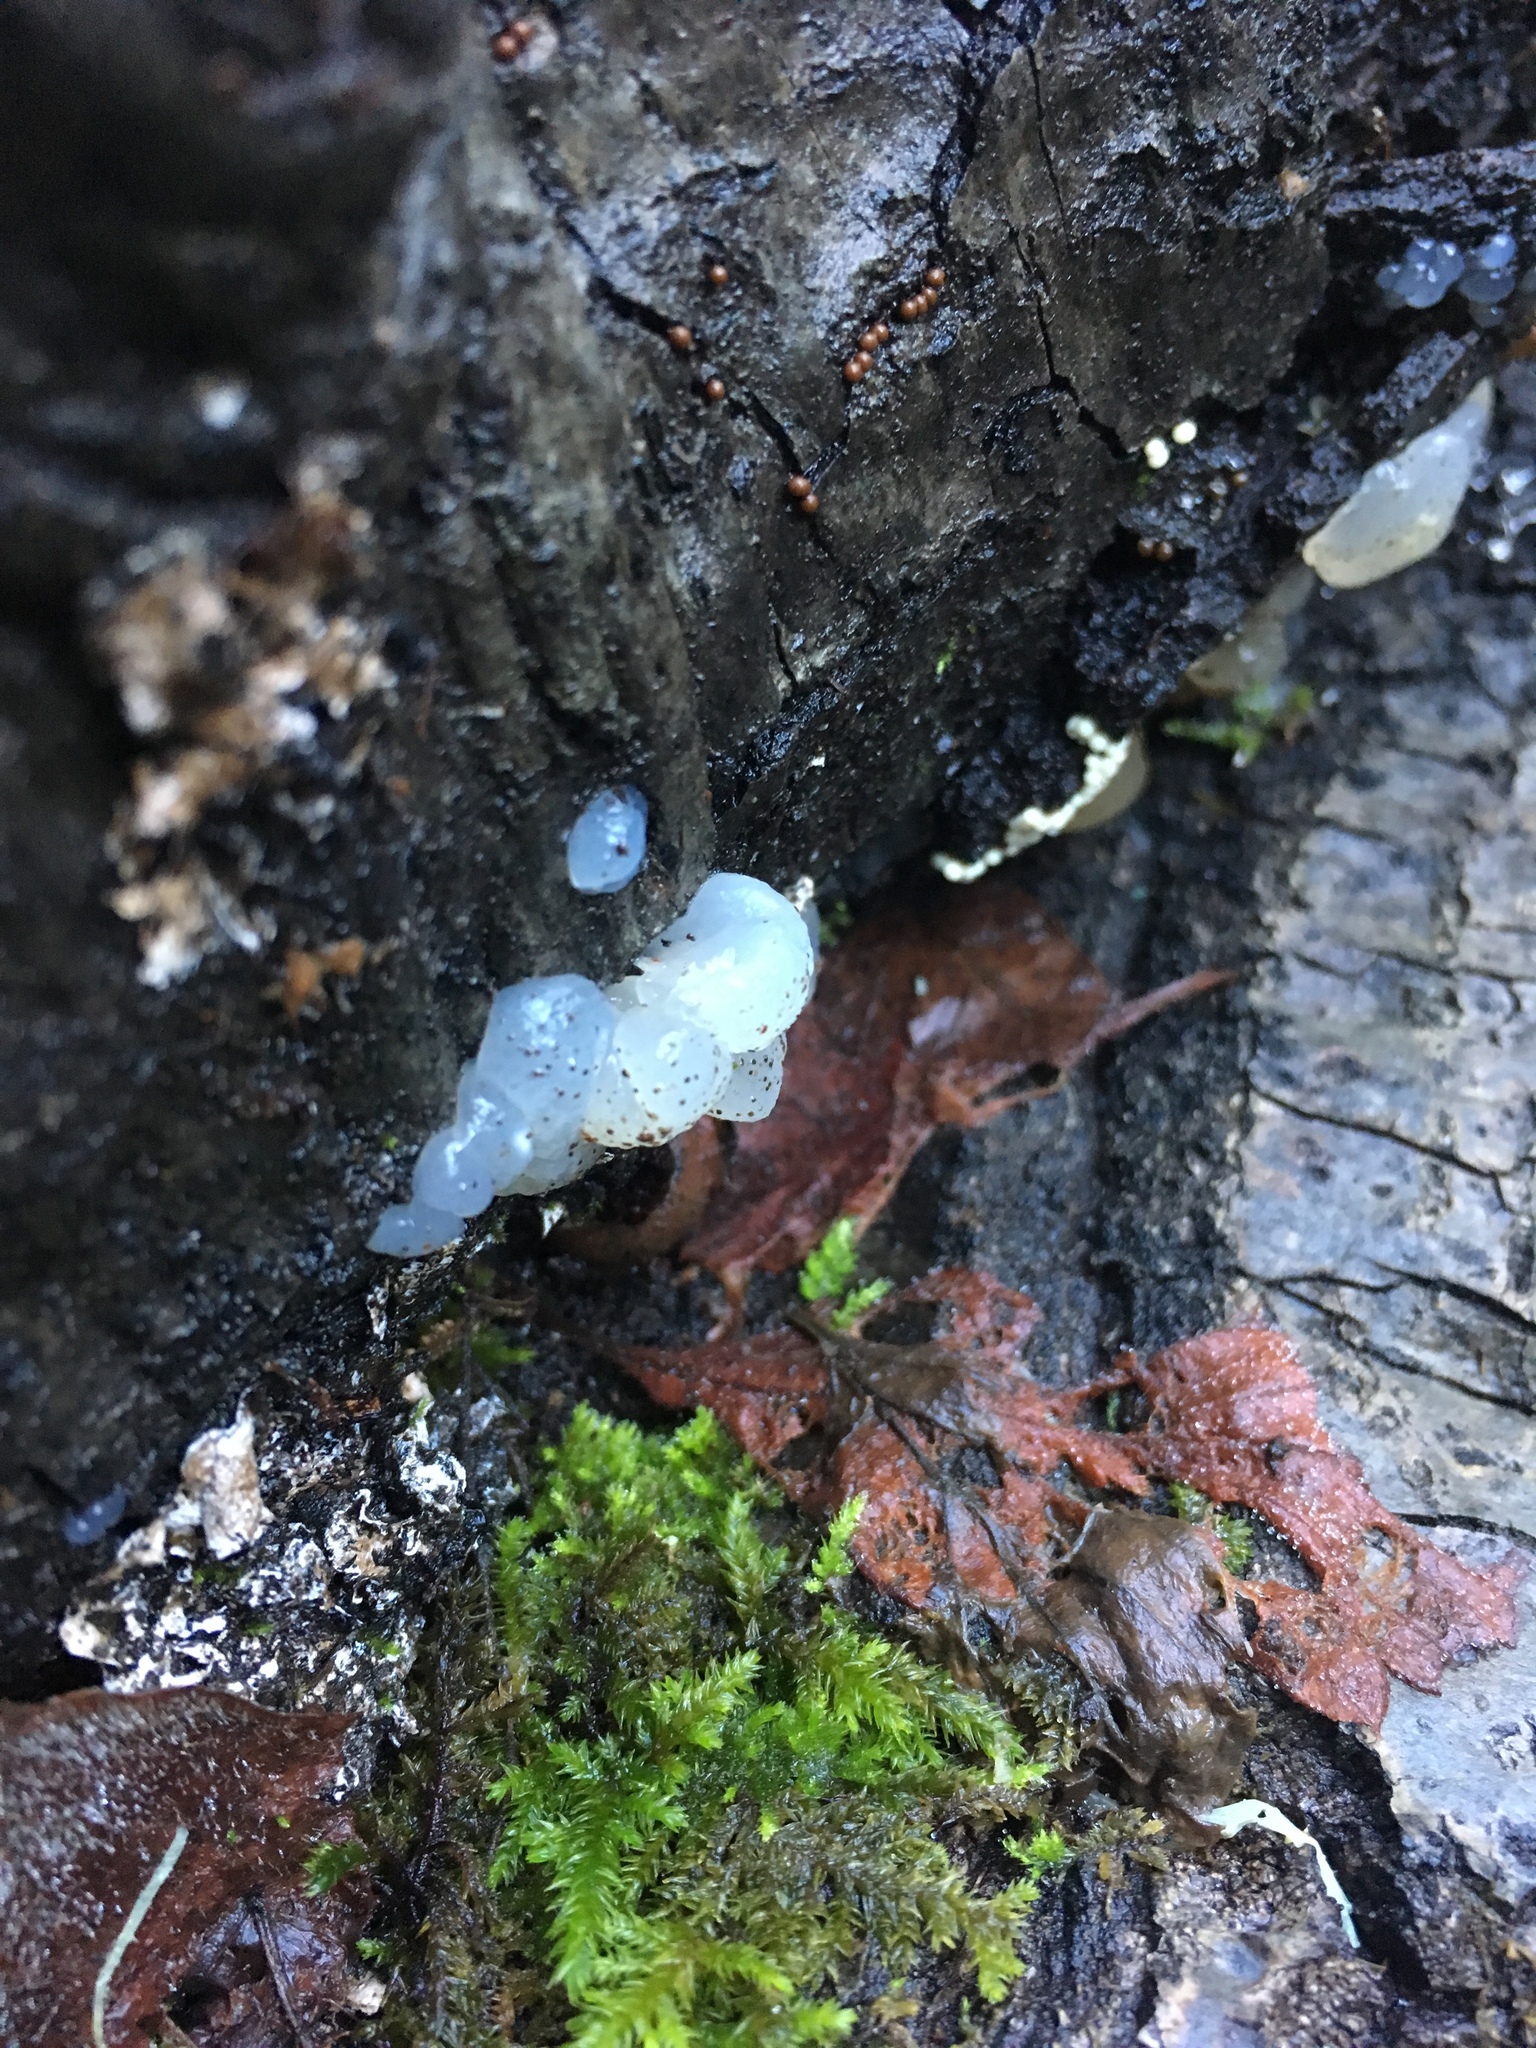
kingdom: Fungi
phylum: Basidiomycota
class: Agaricomycetes
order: Auriculariales
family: Hyaloriaceae
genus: Myxarium
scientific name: Myxarium nucleatum
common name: Crystal brain fungus
